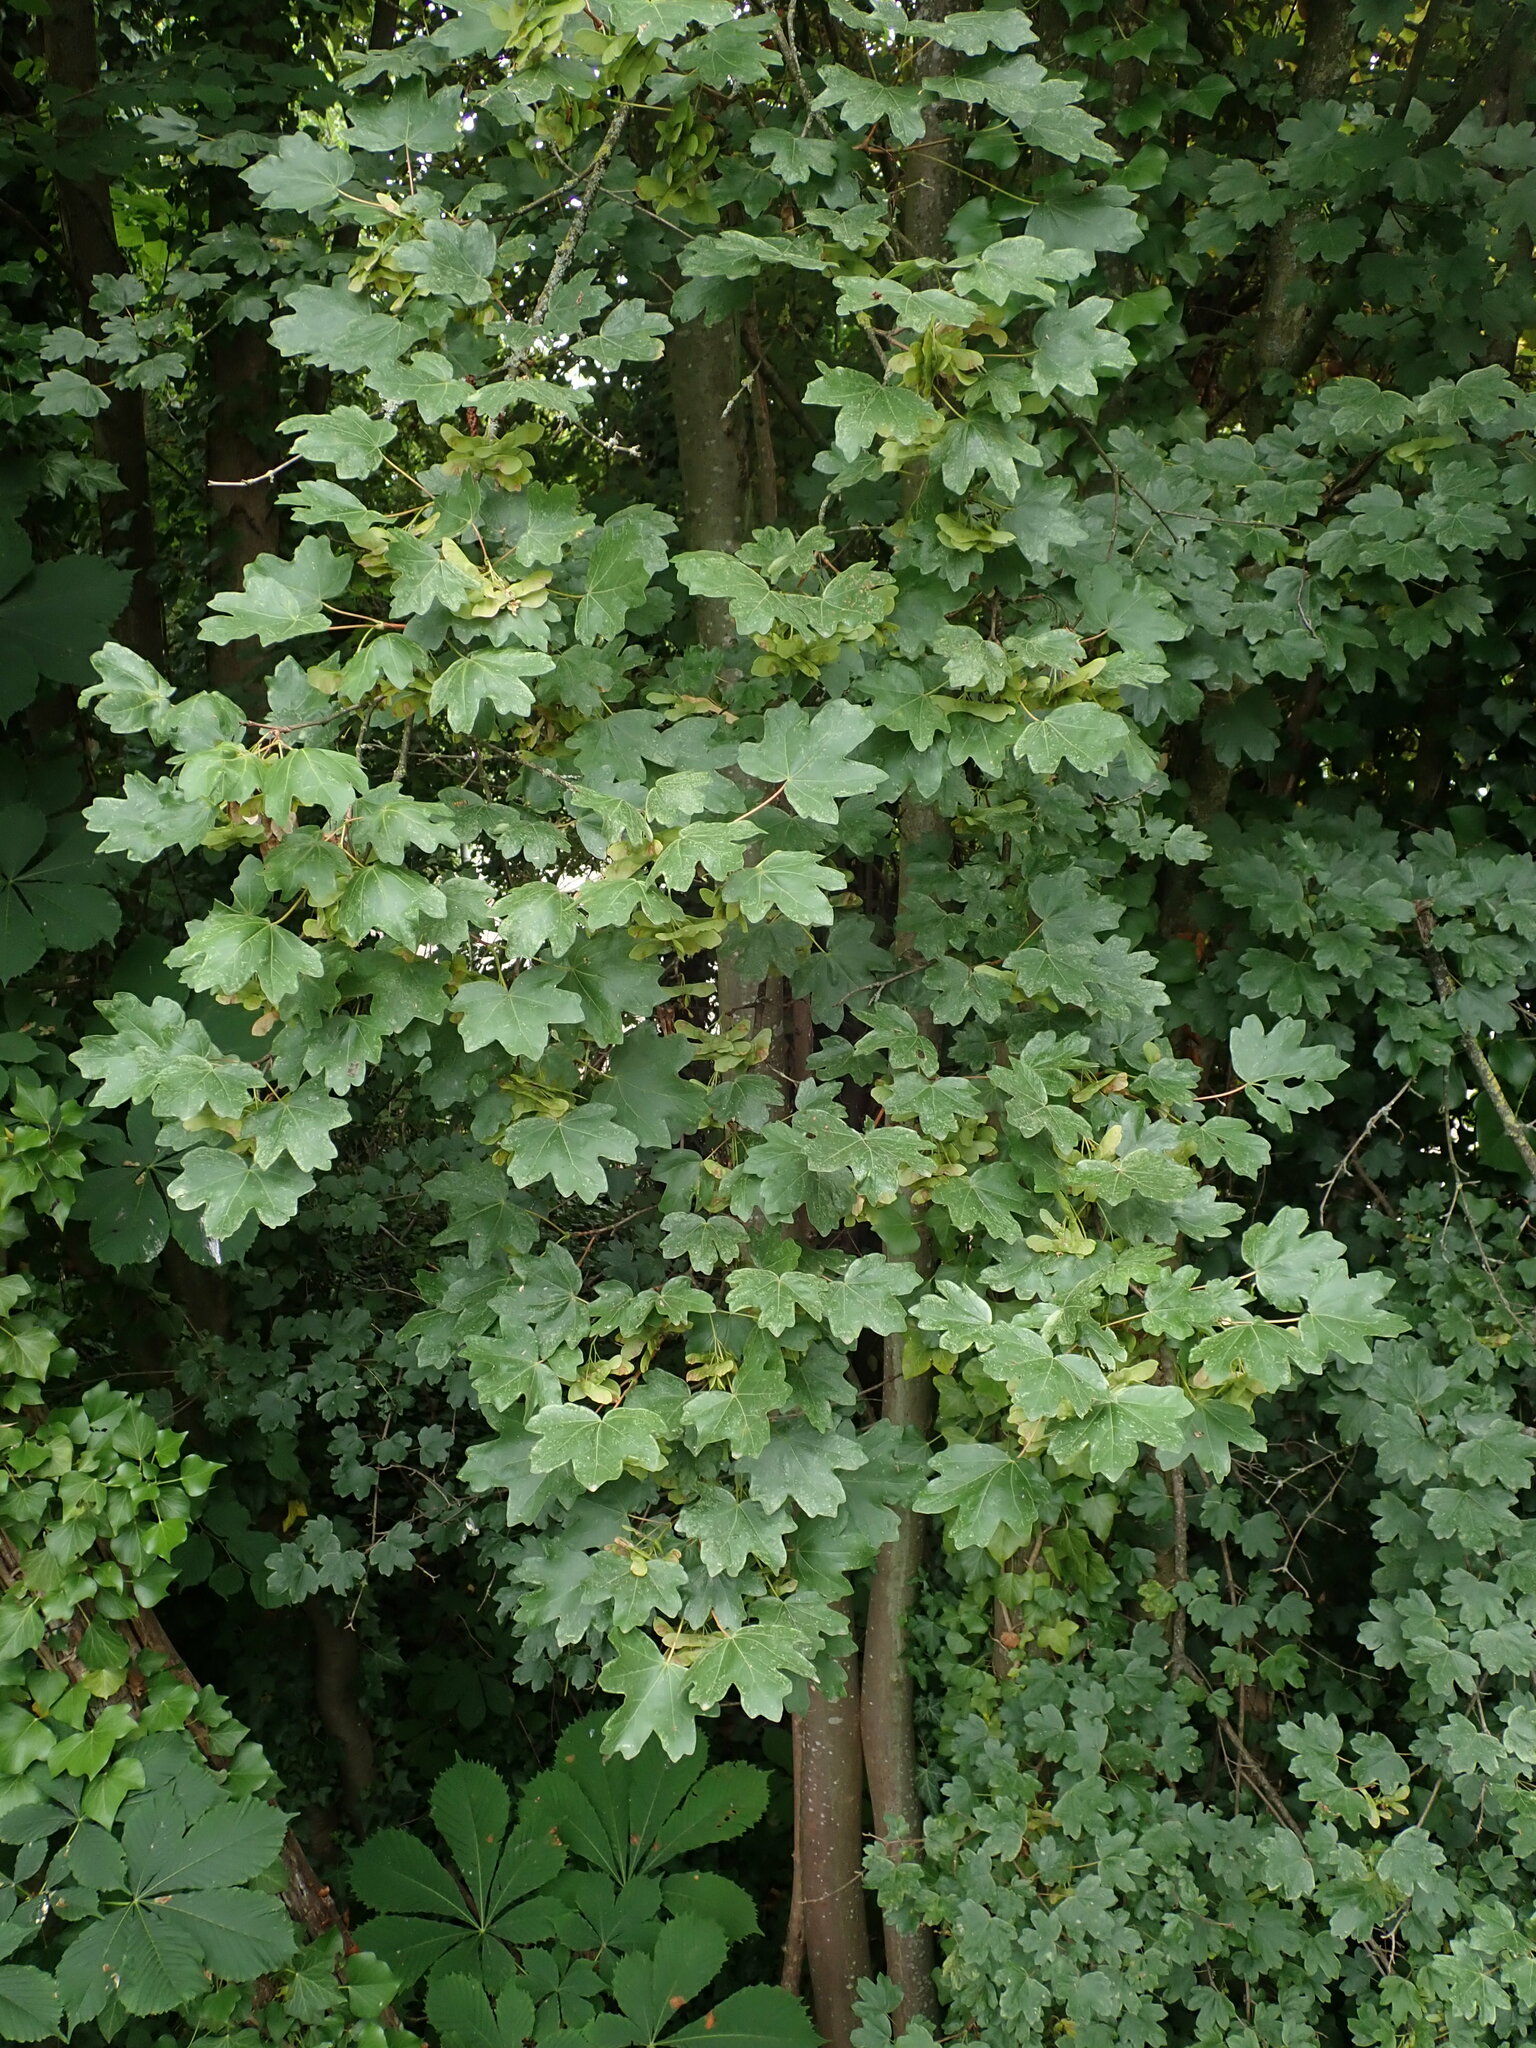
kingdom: Plantae
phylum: Tracheophyta
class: Magnoliopsida
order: Sapindales
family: Sapindaceae
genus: Acer
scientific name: Acer campestre
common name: Field maple
